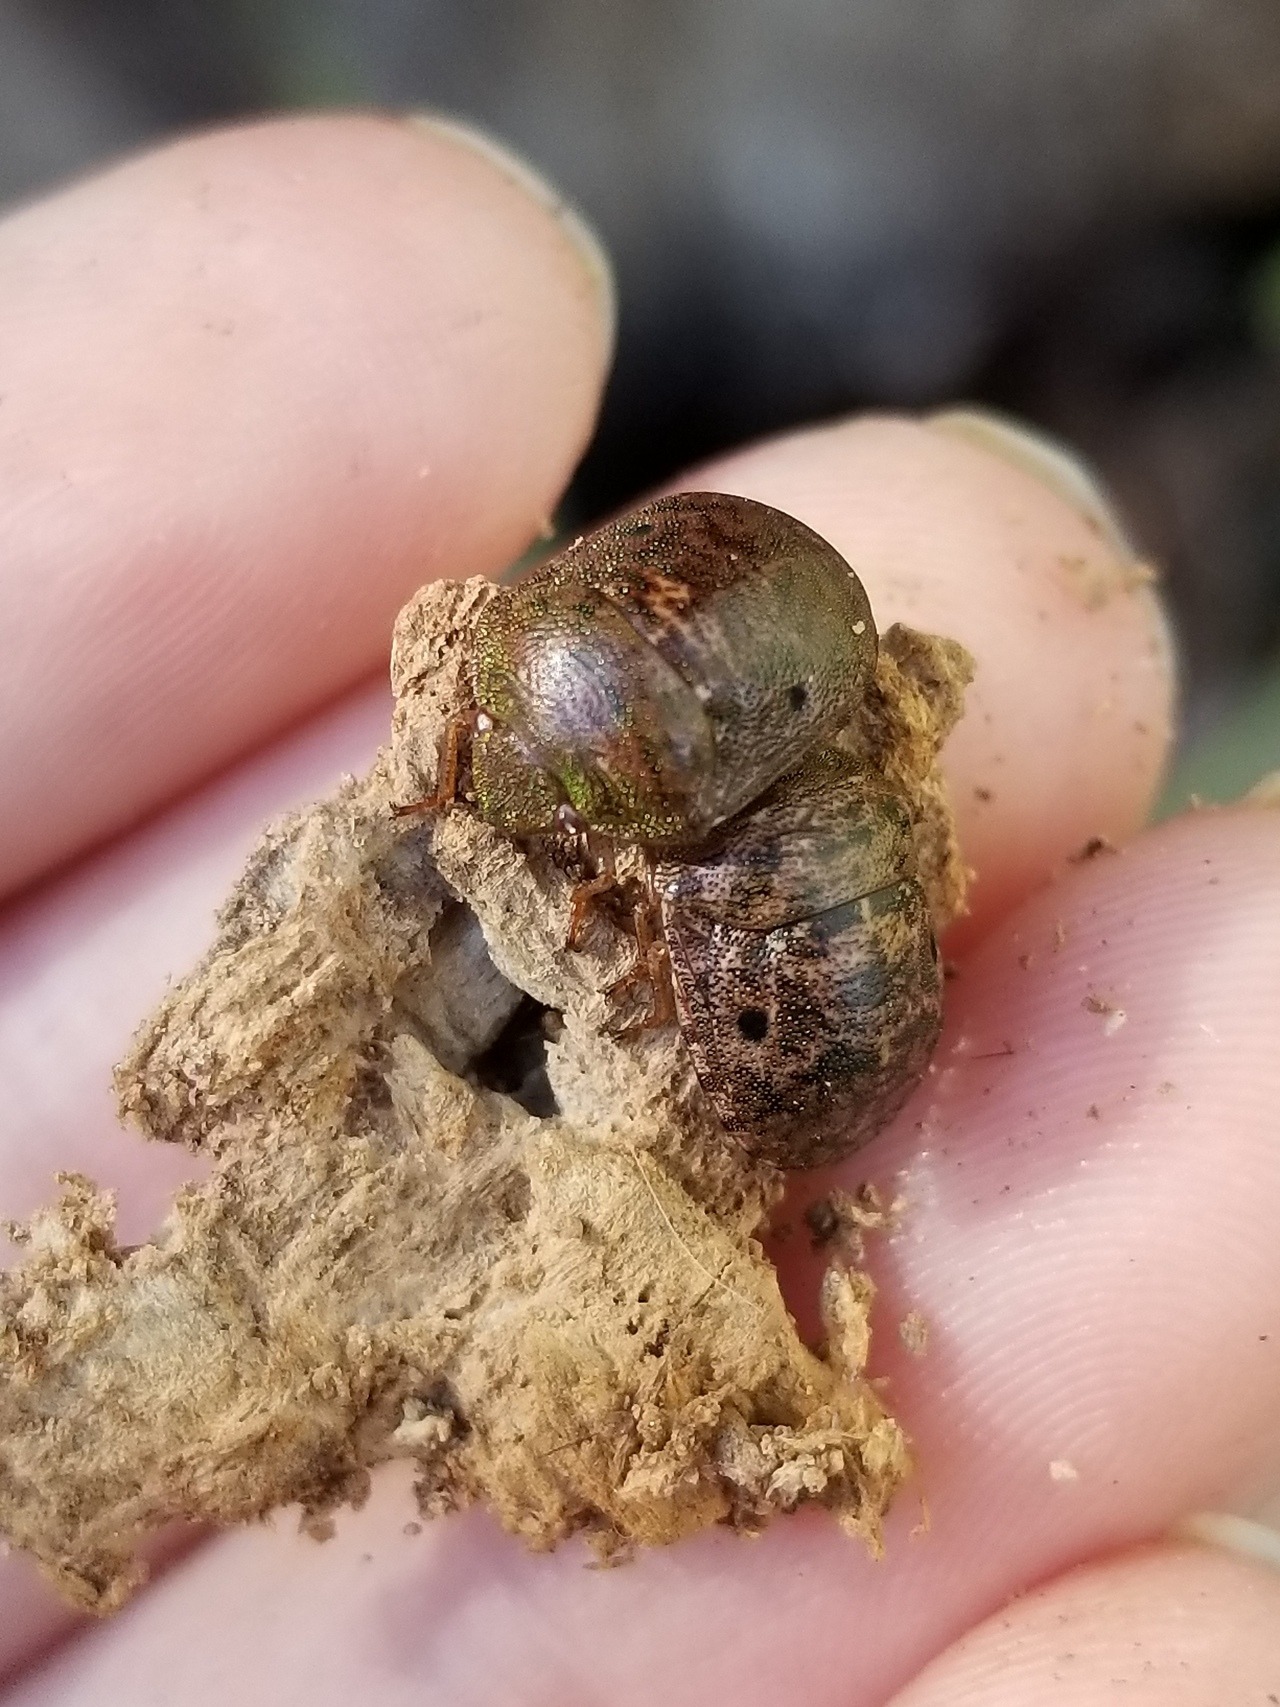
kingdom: Animalia
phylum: Arthropoda
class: Insecta
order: Hemiptera
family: Scutelleridae
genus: Diolcus
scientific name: Diolcus chrysorrhoeus
